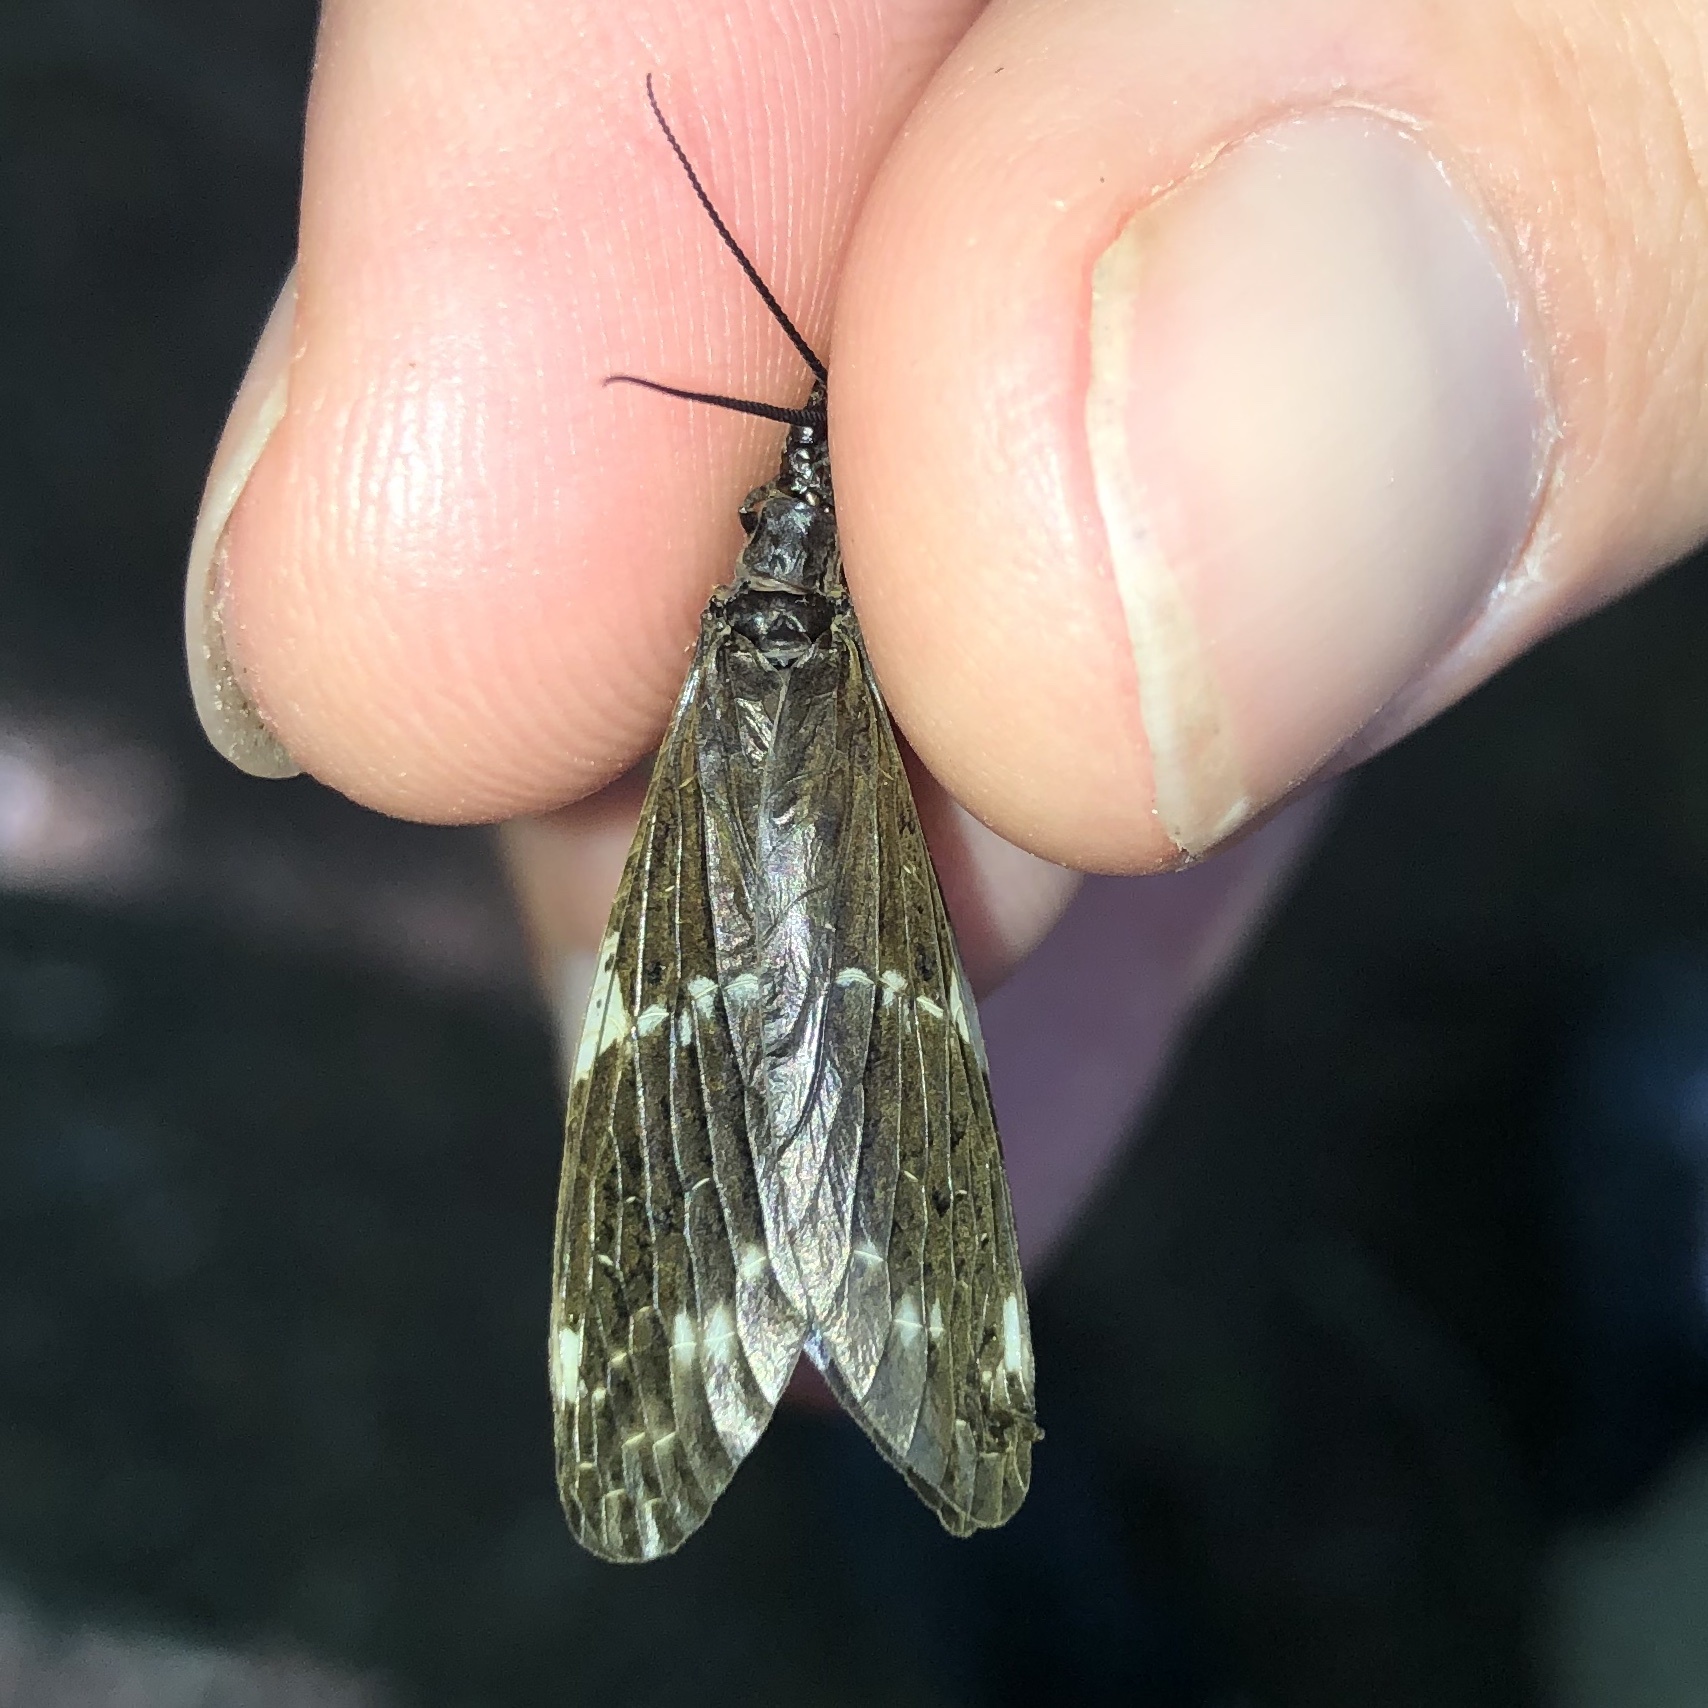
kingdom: Animalia
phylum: Arthropoda
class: Insecta
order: Megaloptera
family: Corydalidae
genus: Nigronia
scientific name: Nigronia serricornis
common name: Serrate dark fishfly
